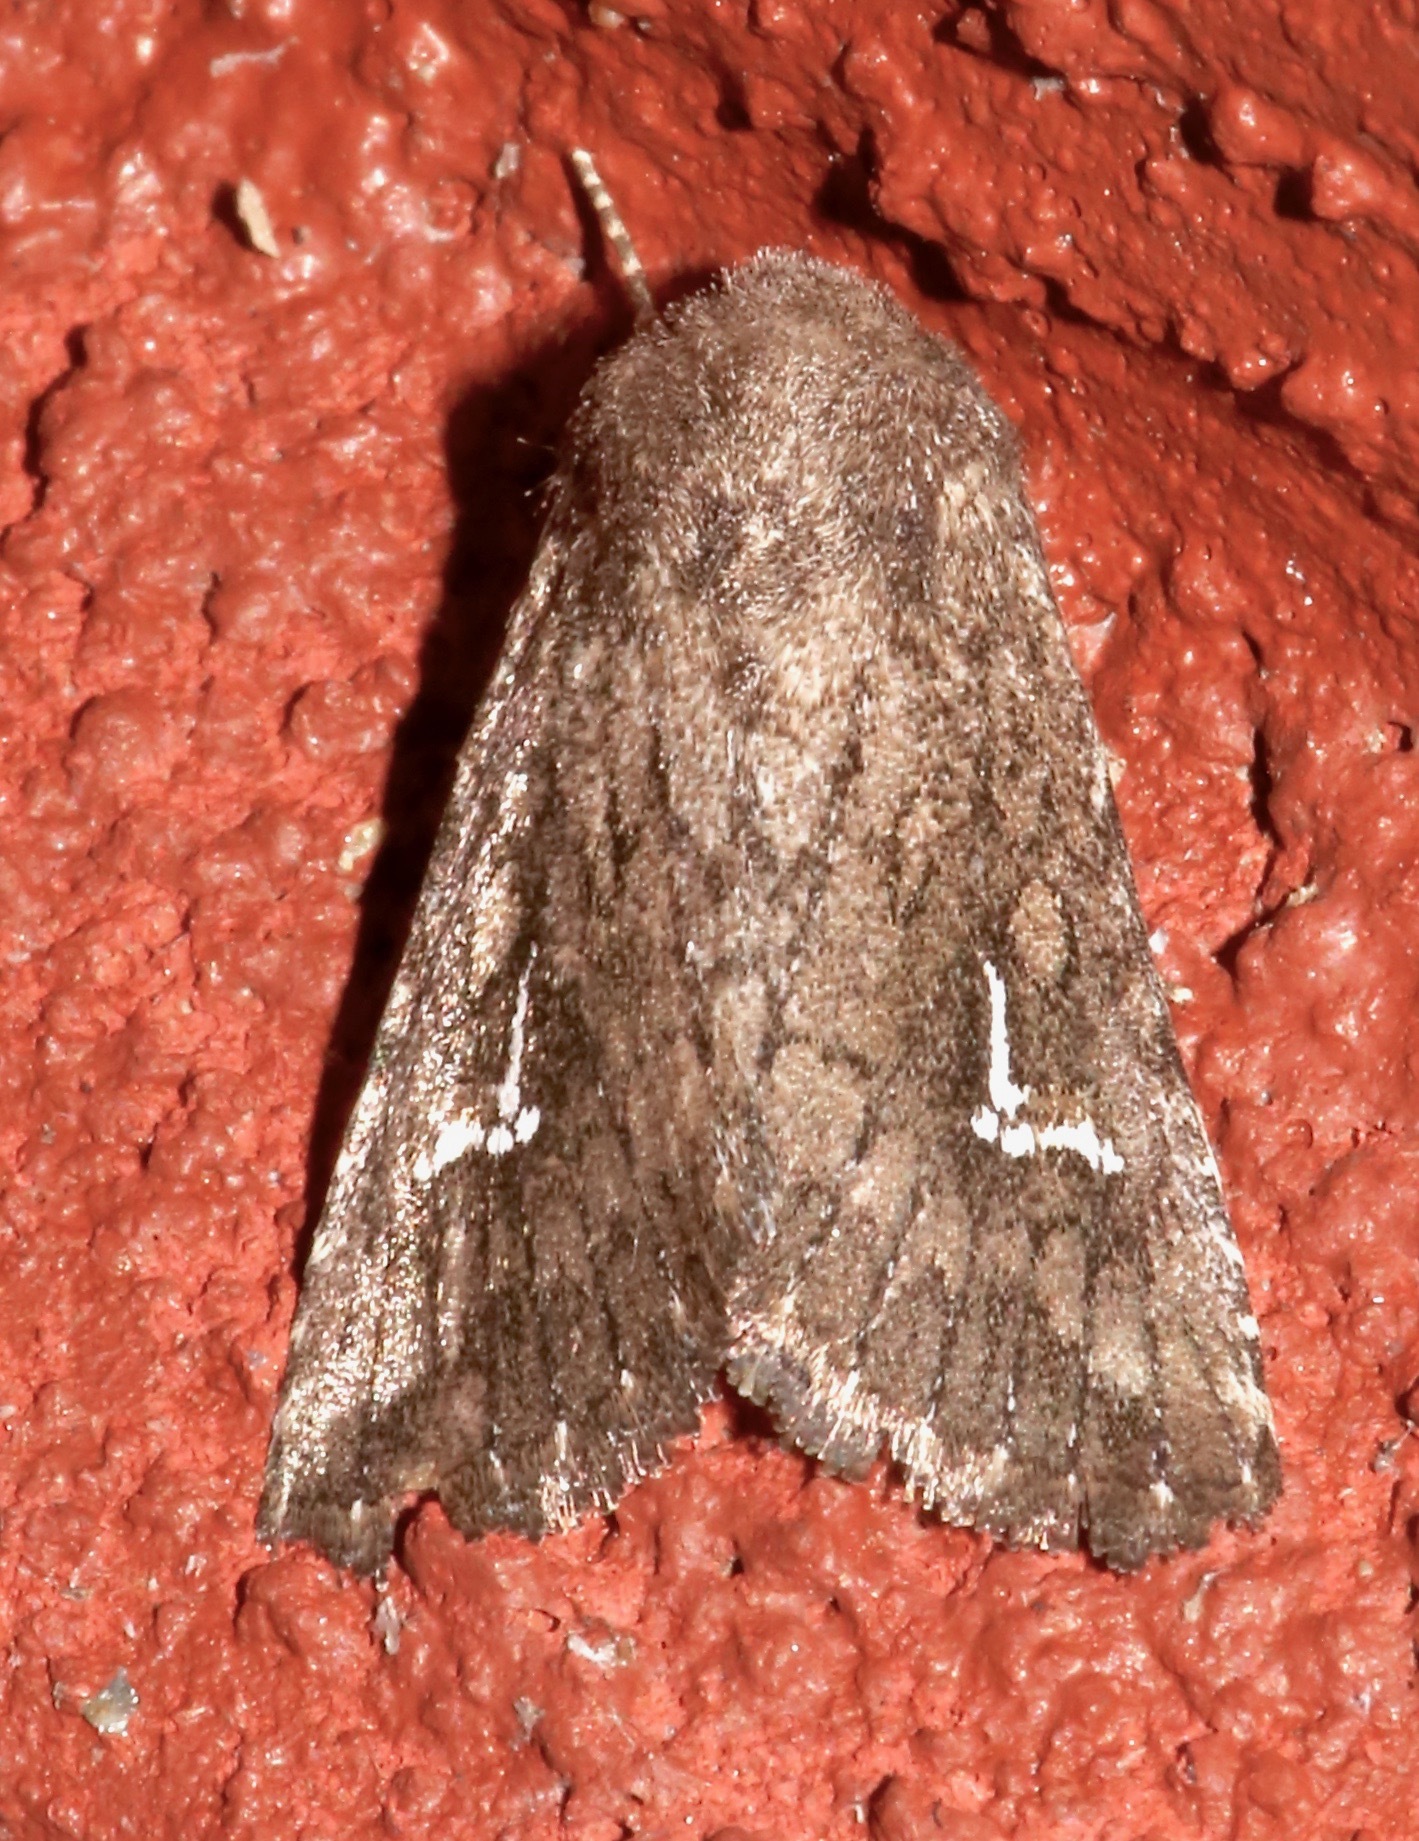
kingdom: Animalia
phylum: Arthropoda
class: Insecta
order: Lepidoptera
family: Noctuidae
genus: Tricholita
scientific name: Tricholita chipeta
